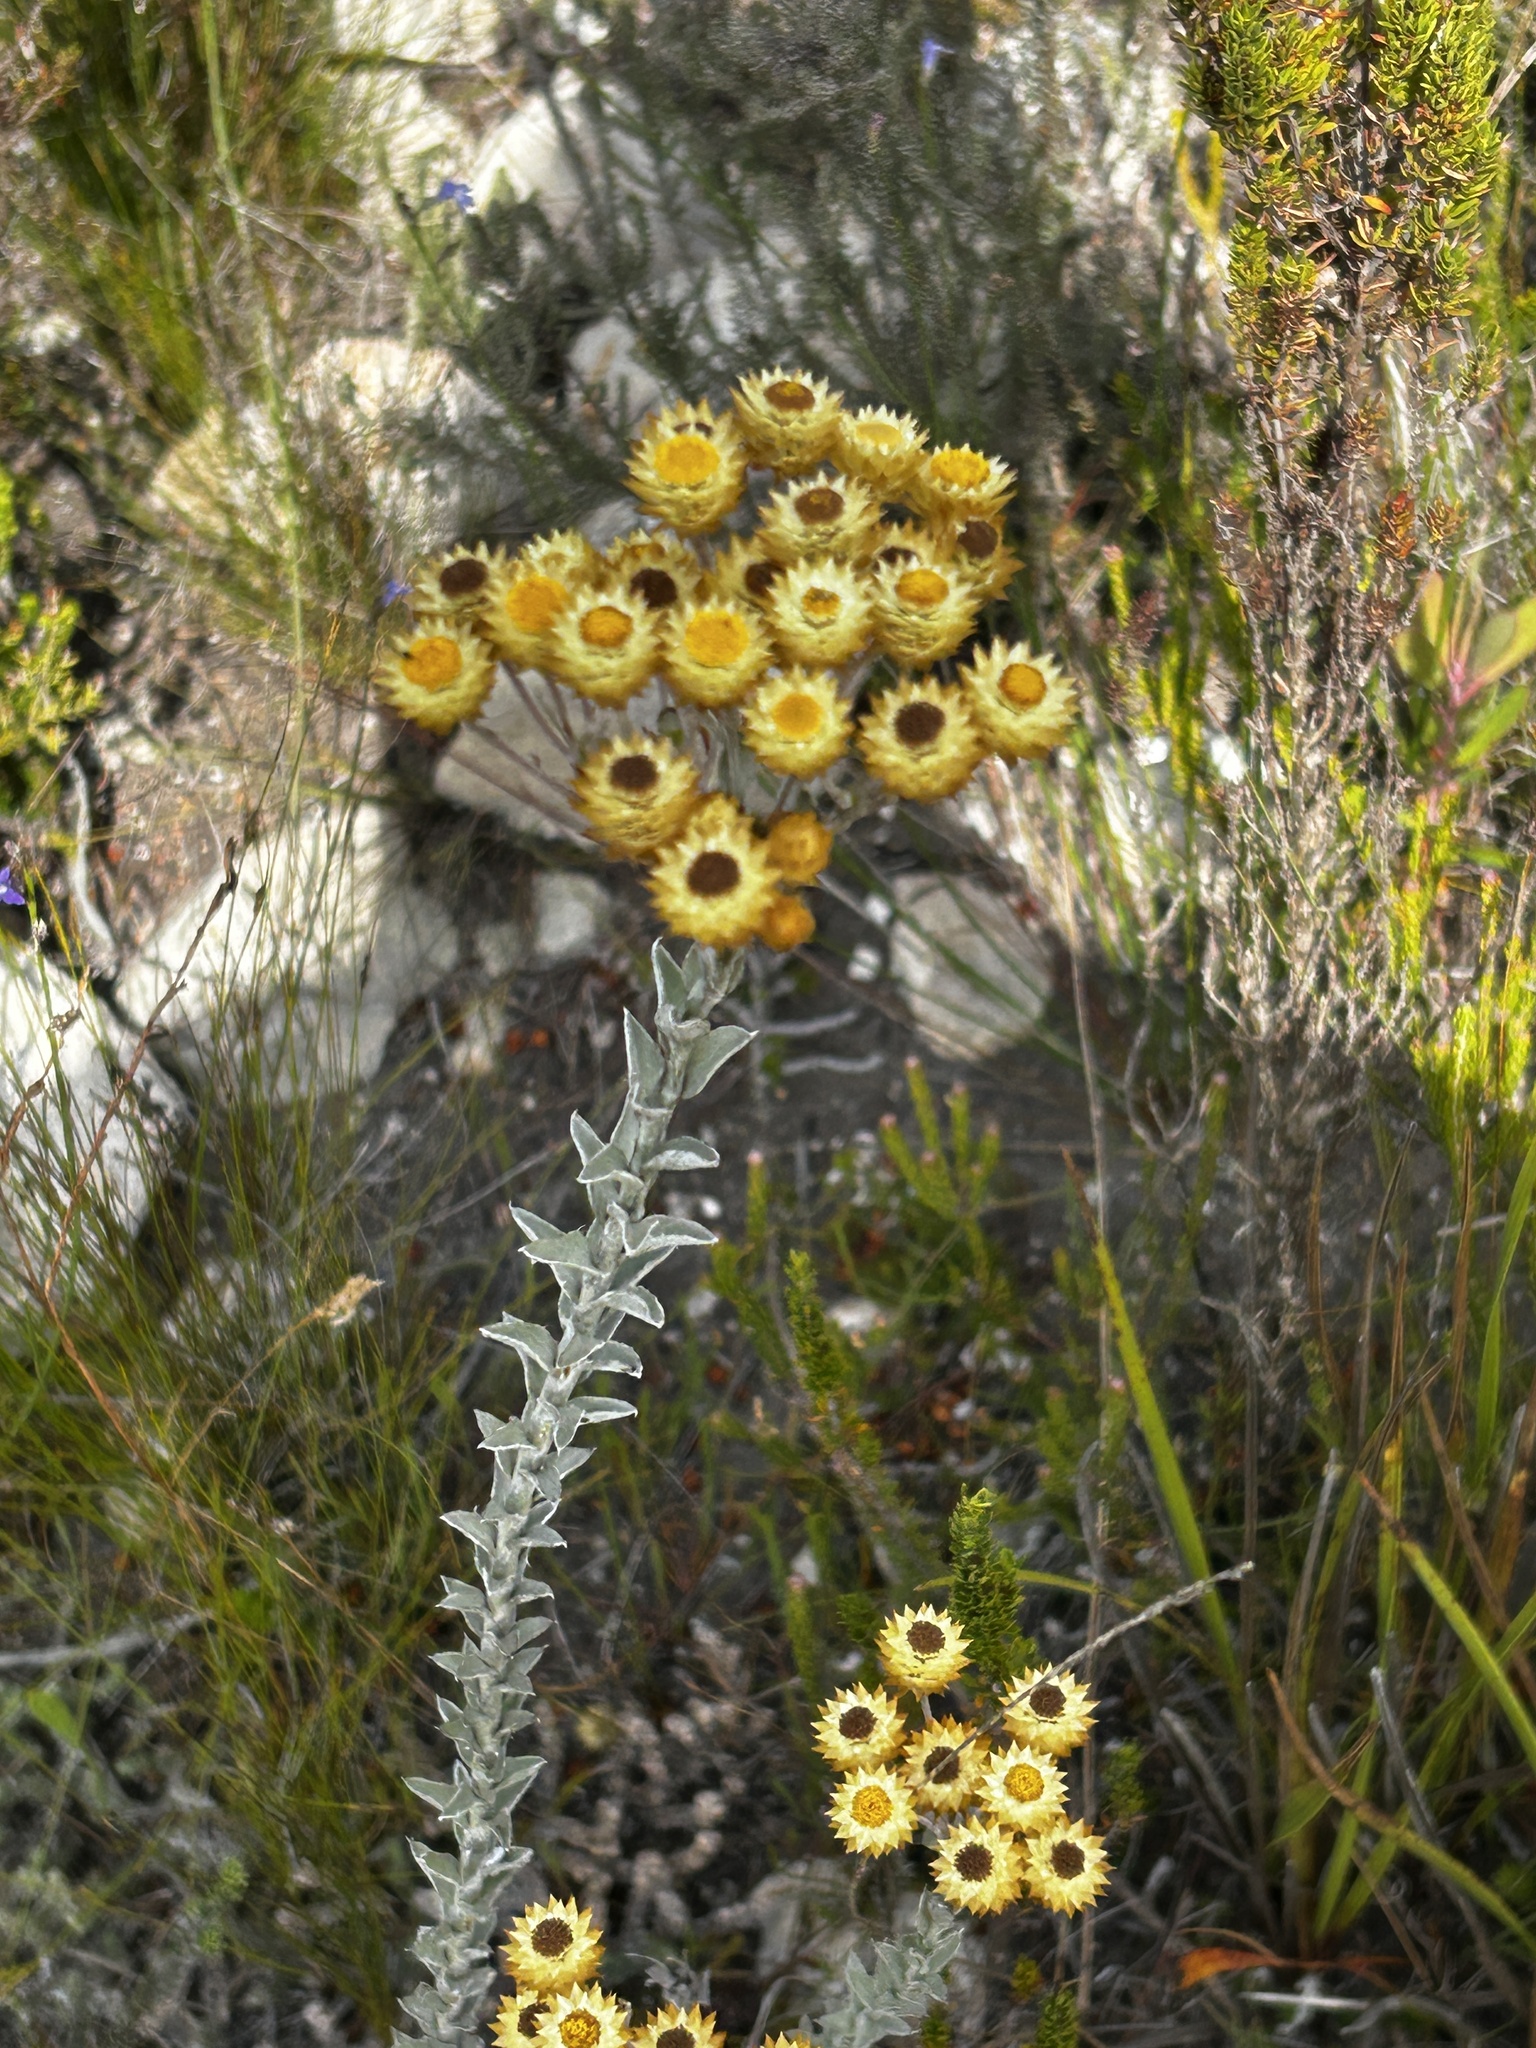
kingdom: Plantae
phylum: Tracheophyta
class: Magnoliopsida
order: Asterales
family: Asteraceae
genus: Achyranthemum
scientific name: Achyranthemum mucronatum
